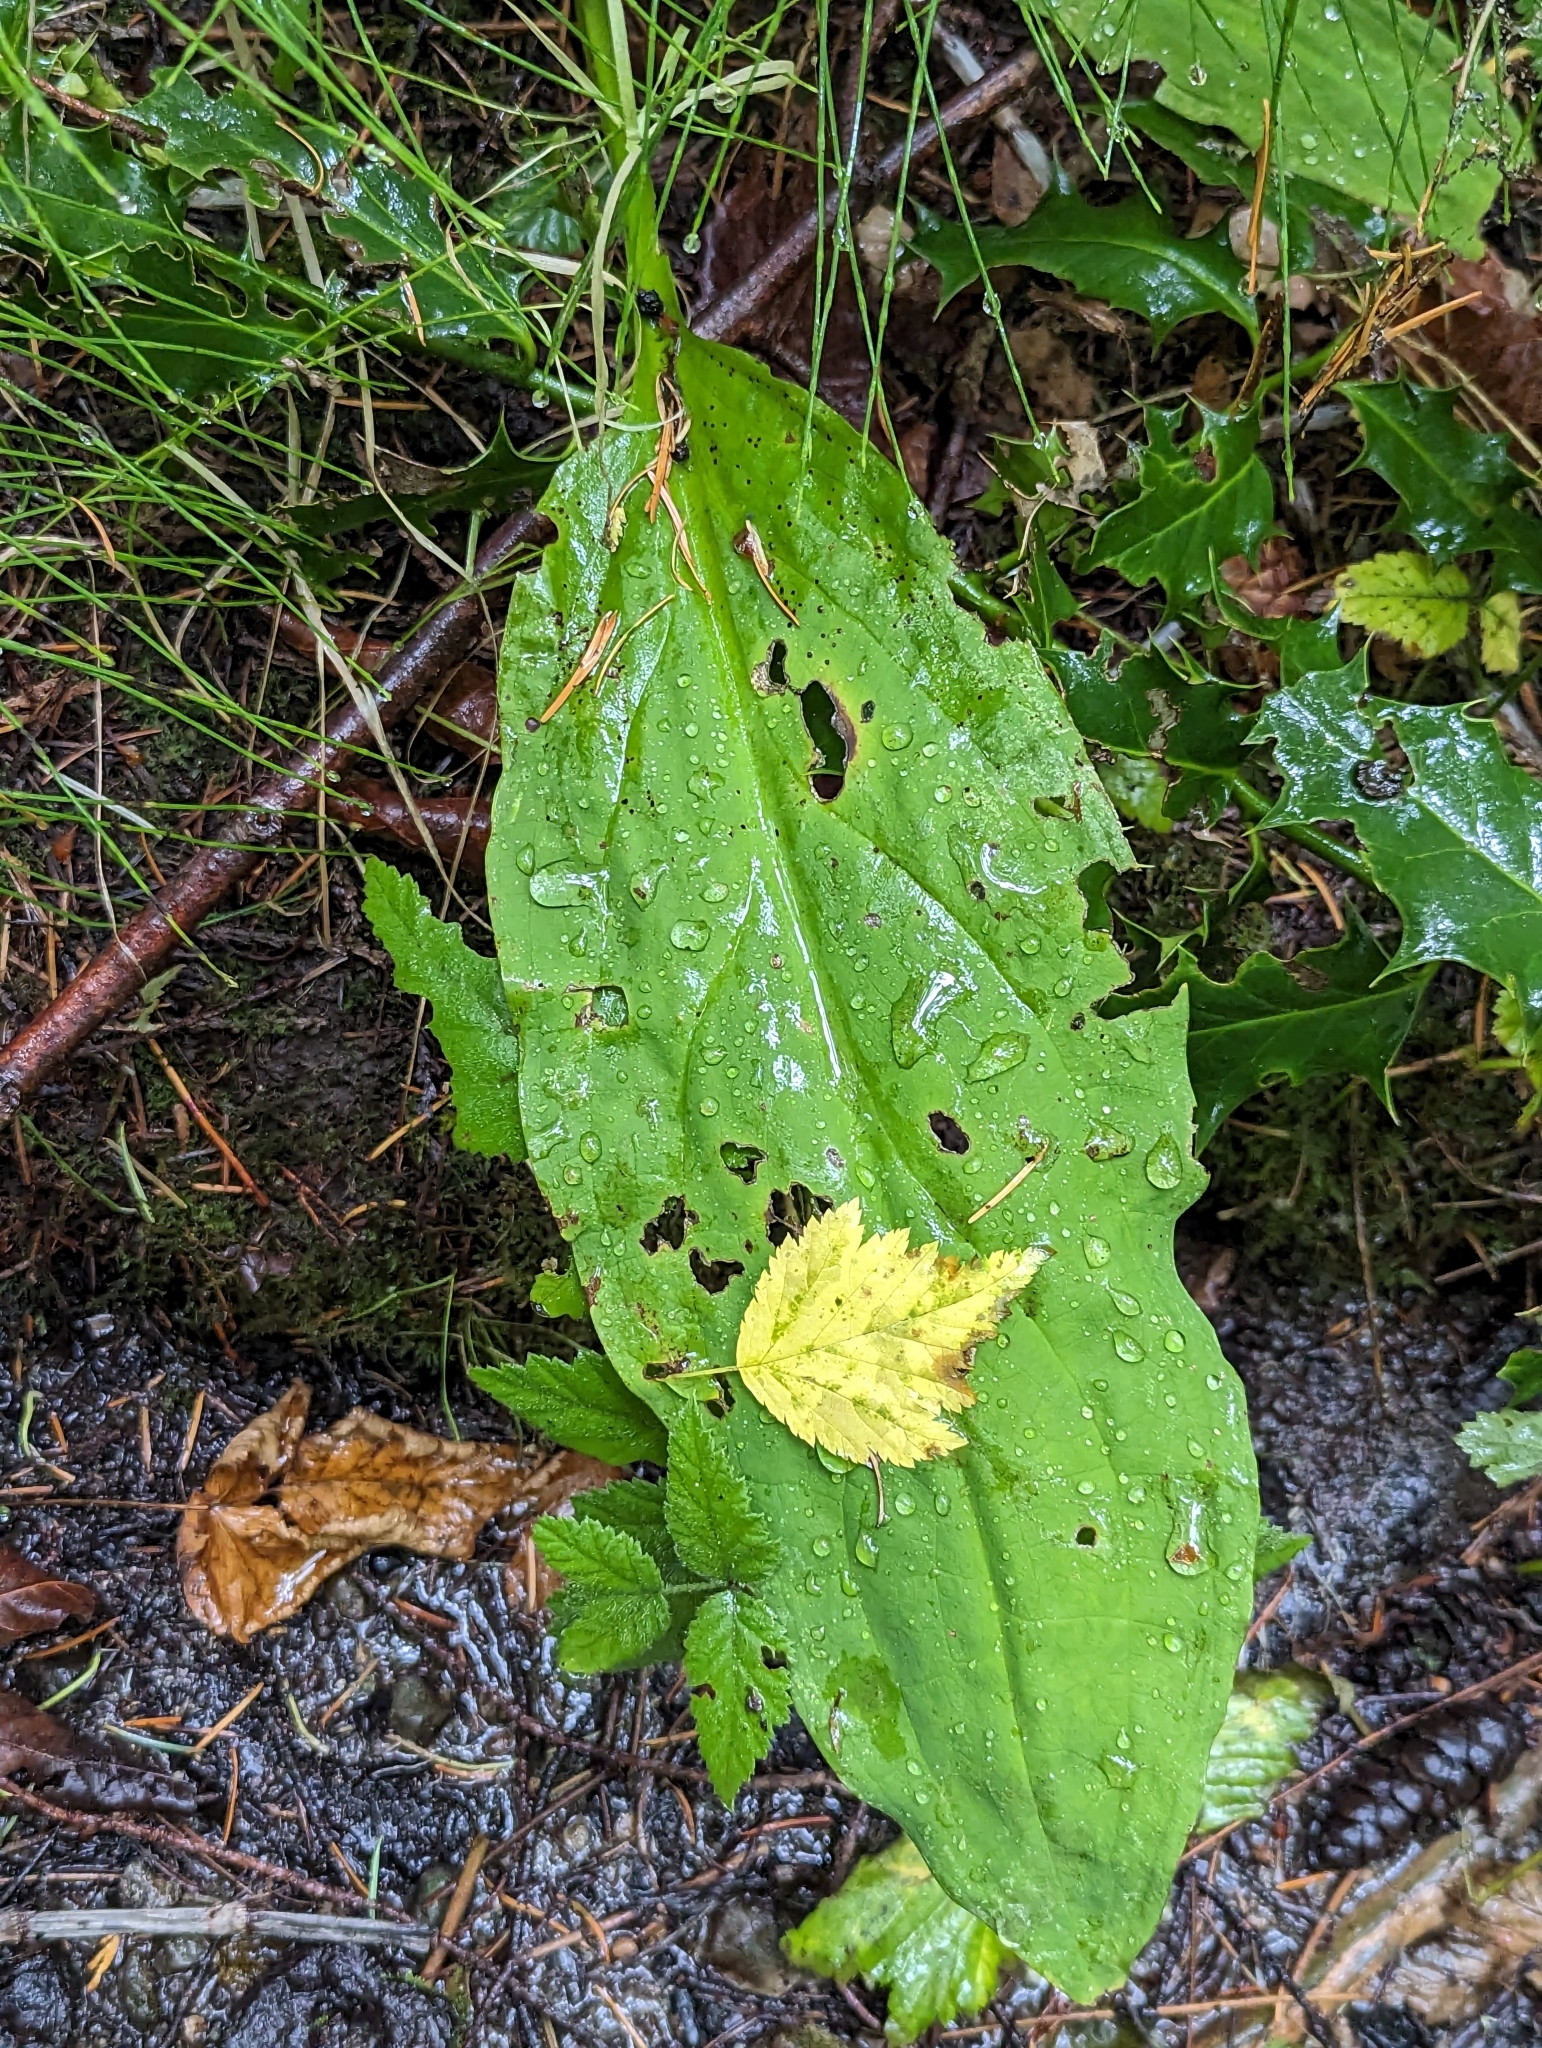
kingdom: Plantae
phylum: Tracheophyta
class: Liliopsida
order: Alismatales
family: Araceae
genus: Lysichiton
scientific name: Lysichiton americanus
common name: American skunk cabbage
